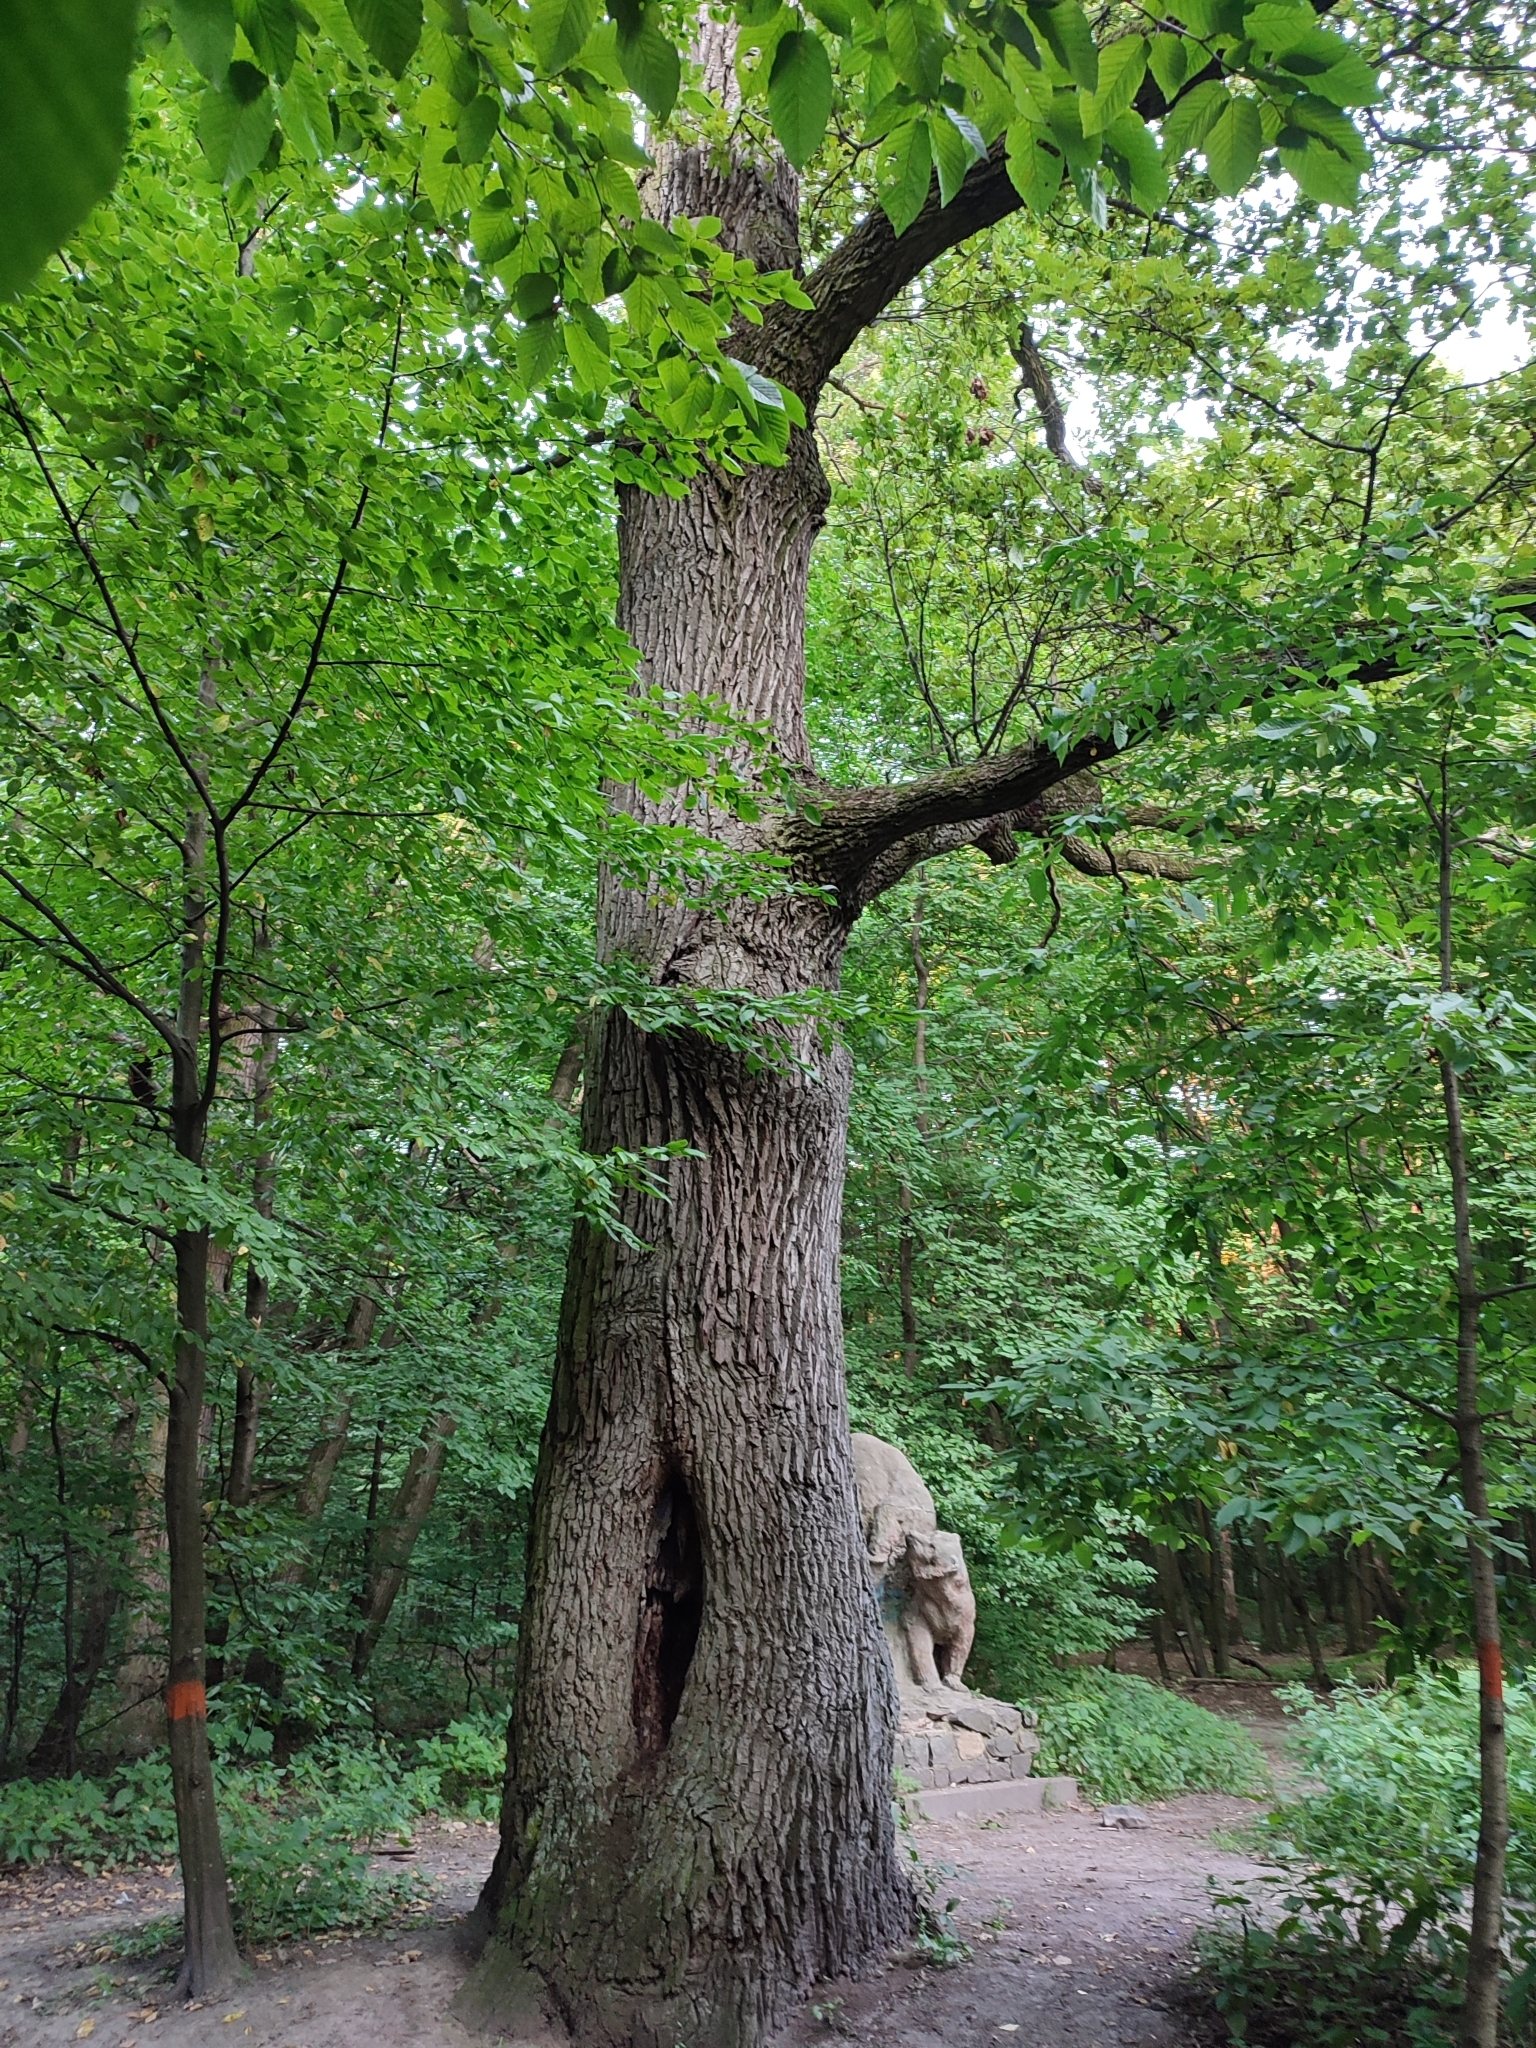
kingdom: Plantae
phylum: Tracheophyta
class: Magnoliopsida
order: Fagales
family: Fagaceae
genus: Quercus
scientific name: Quercus robur
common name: Pedunculate oak
